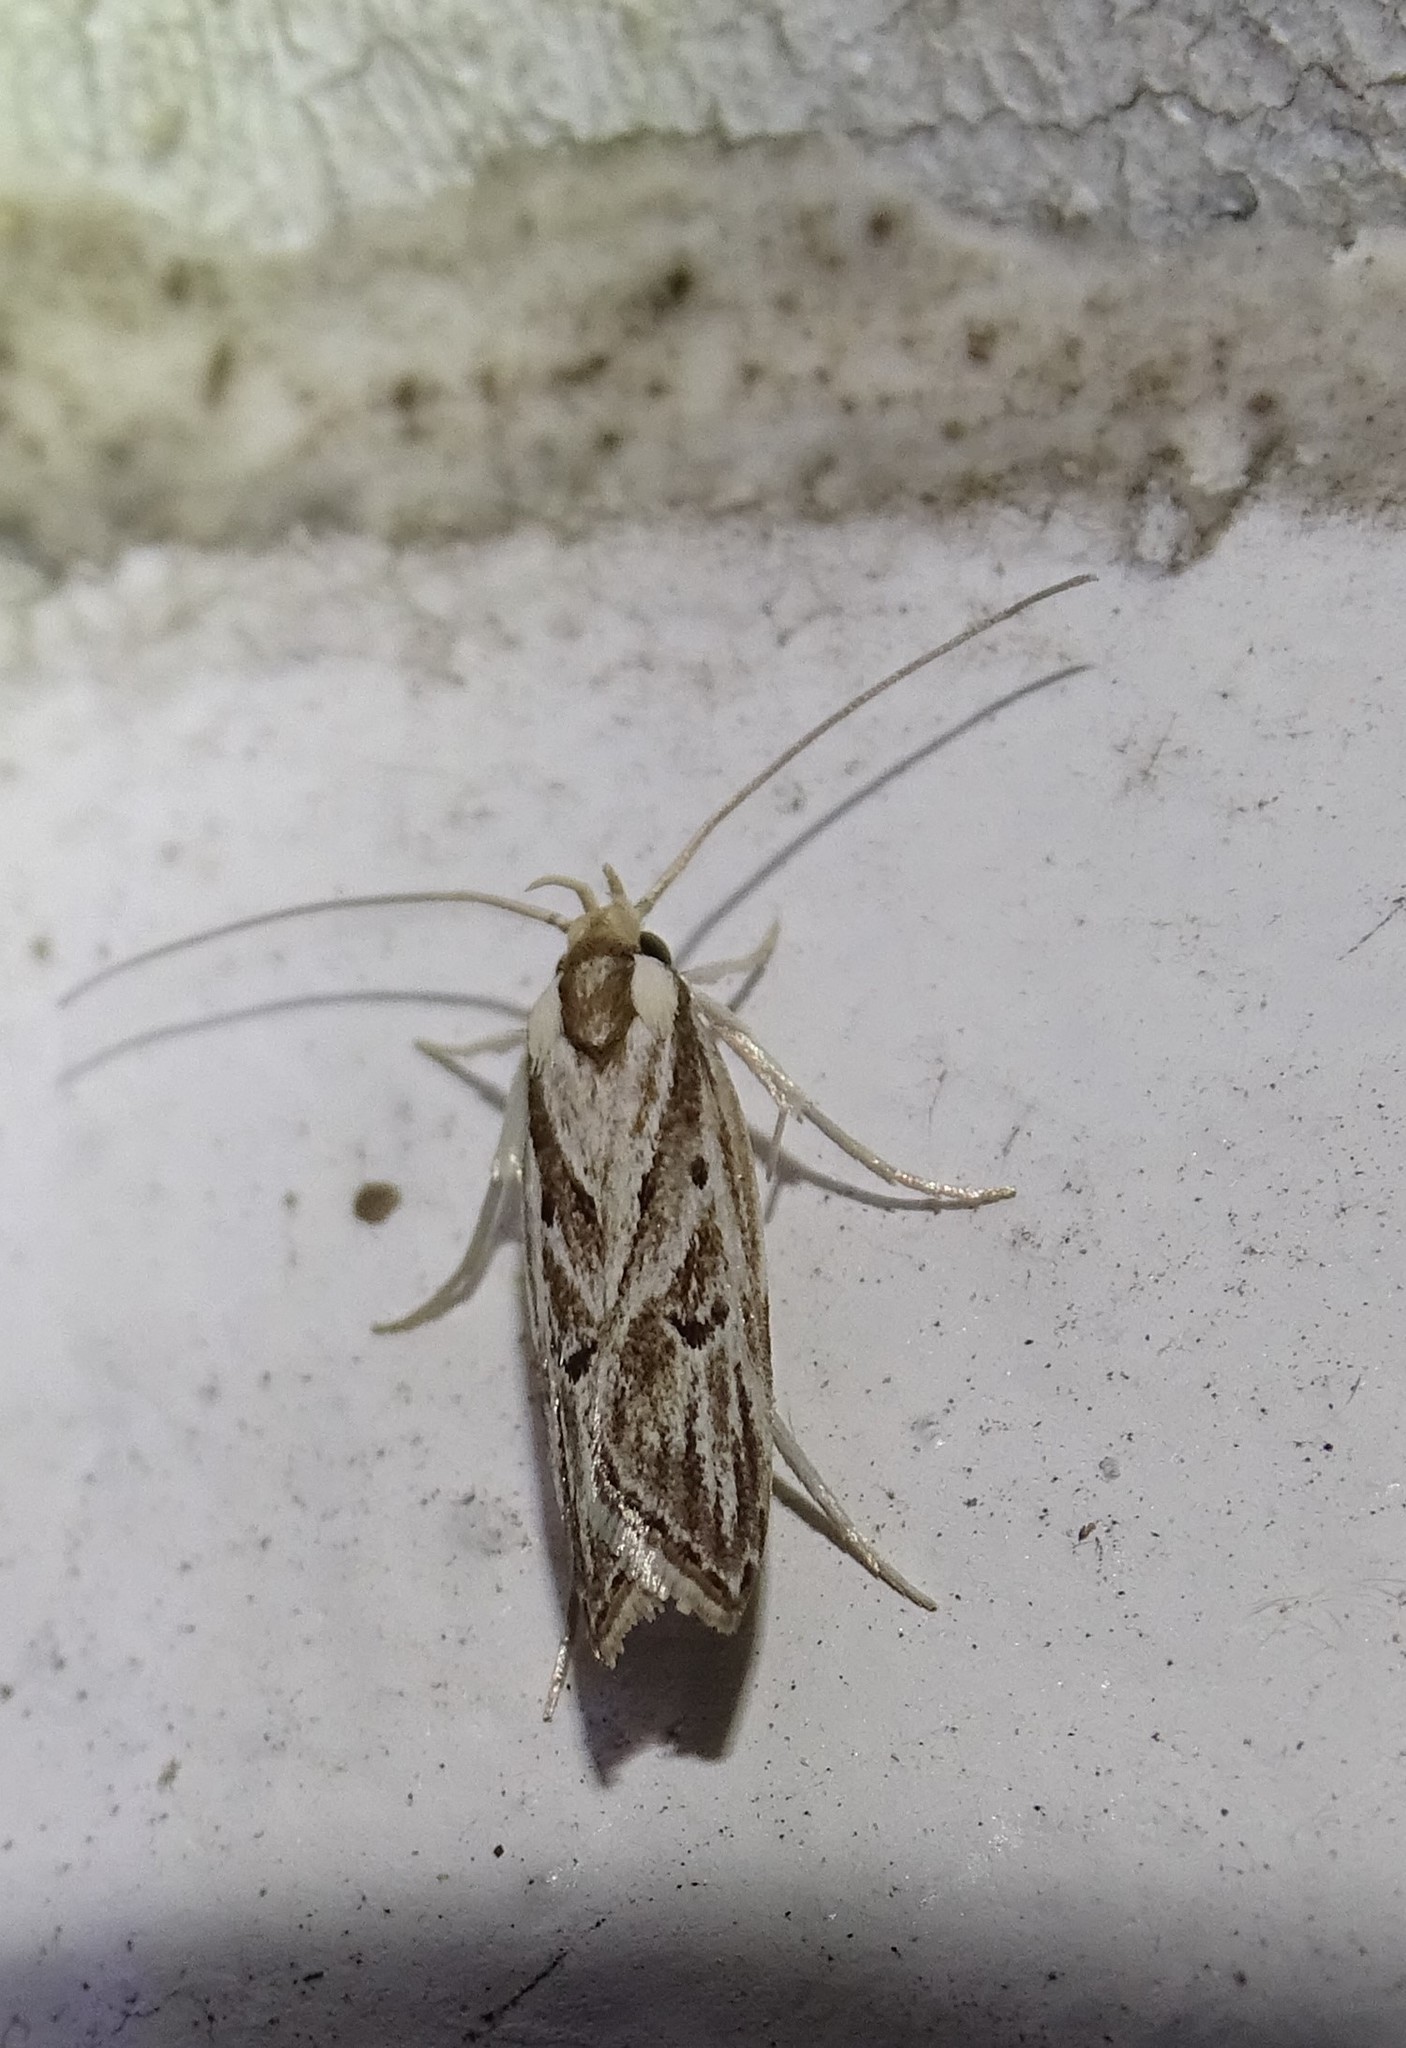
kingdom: Animalia
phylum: Arthropoda
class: Insecta
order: Lepidoptera
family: Depressariidae
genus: Eupragia
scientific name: Eupragia hospita
